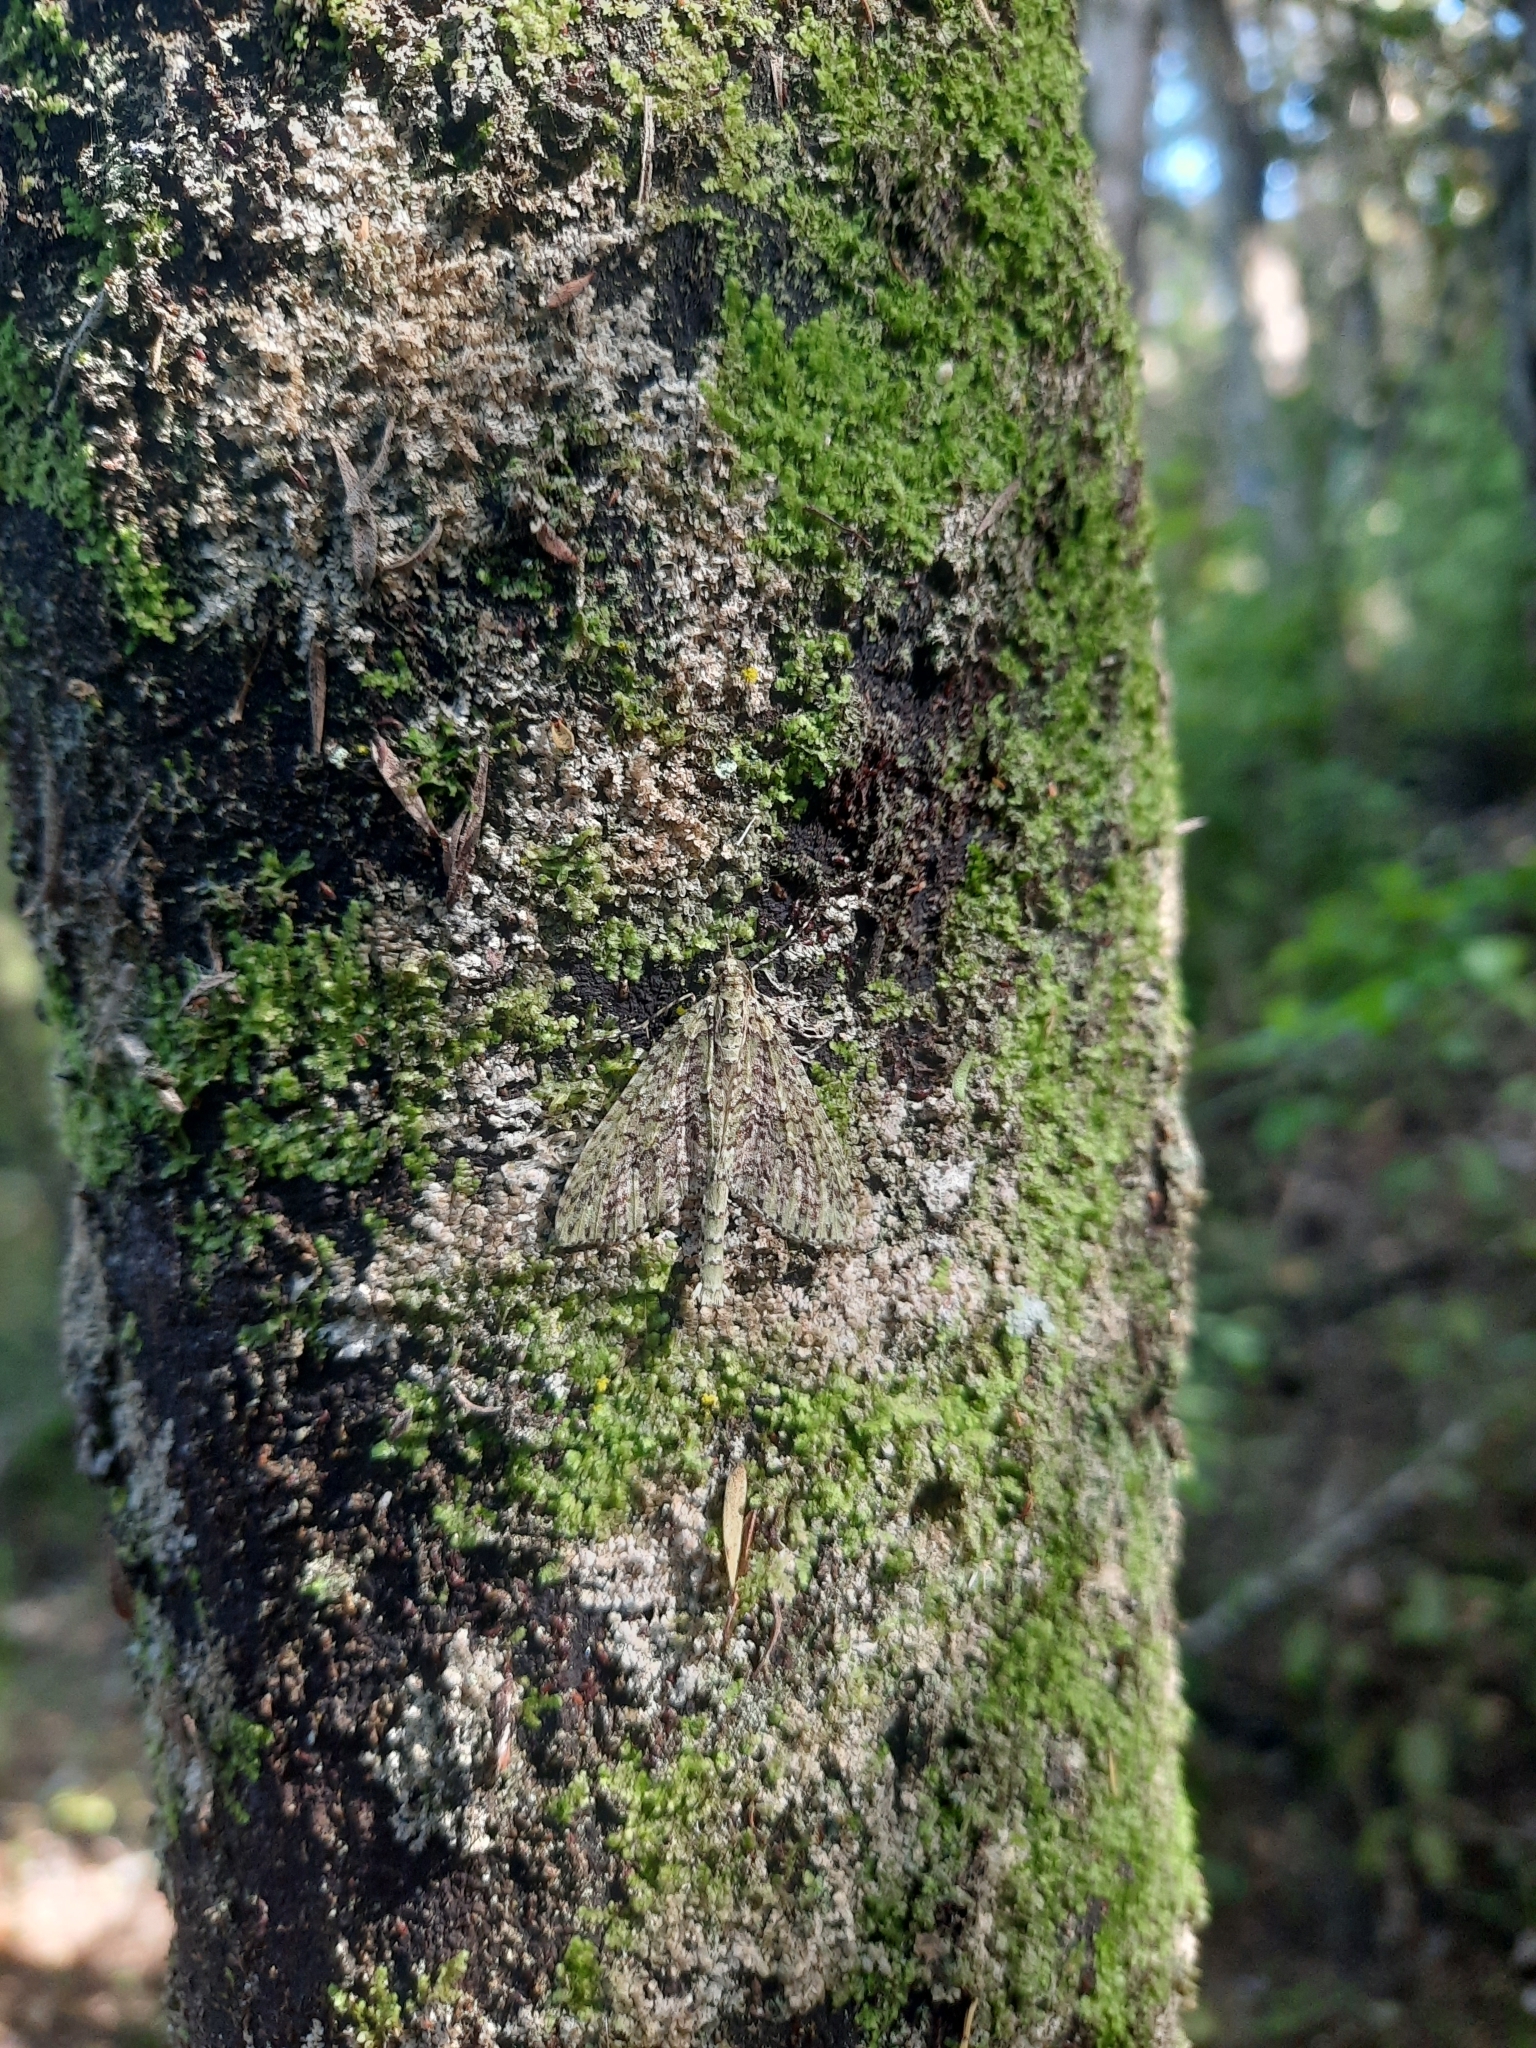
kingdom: Animalia
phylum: Arthropoda
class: Insecta
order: Lepidoptera
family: Geometridae
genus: Tatosoma
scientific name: Tatosoma tipulata
